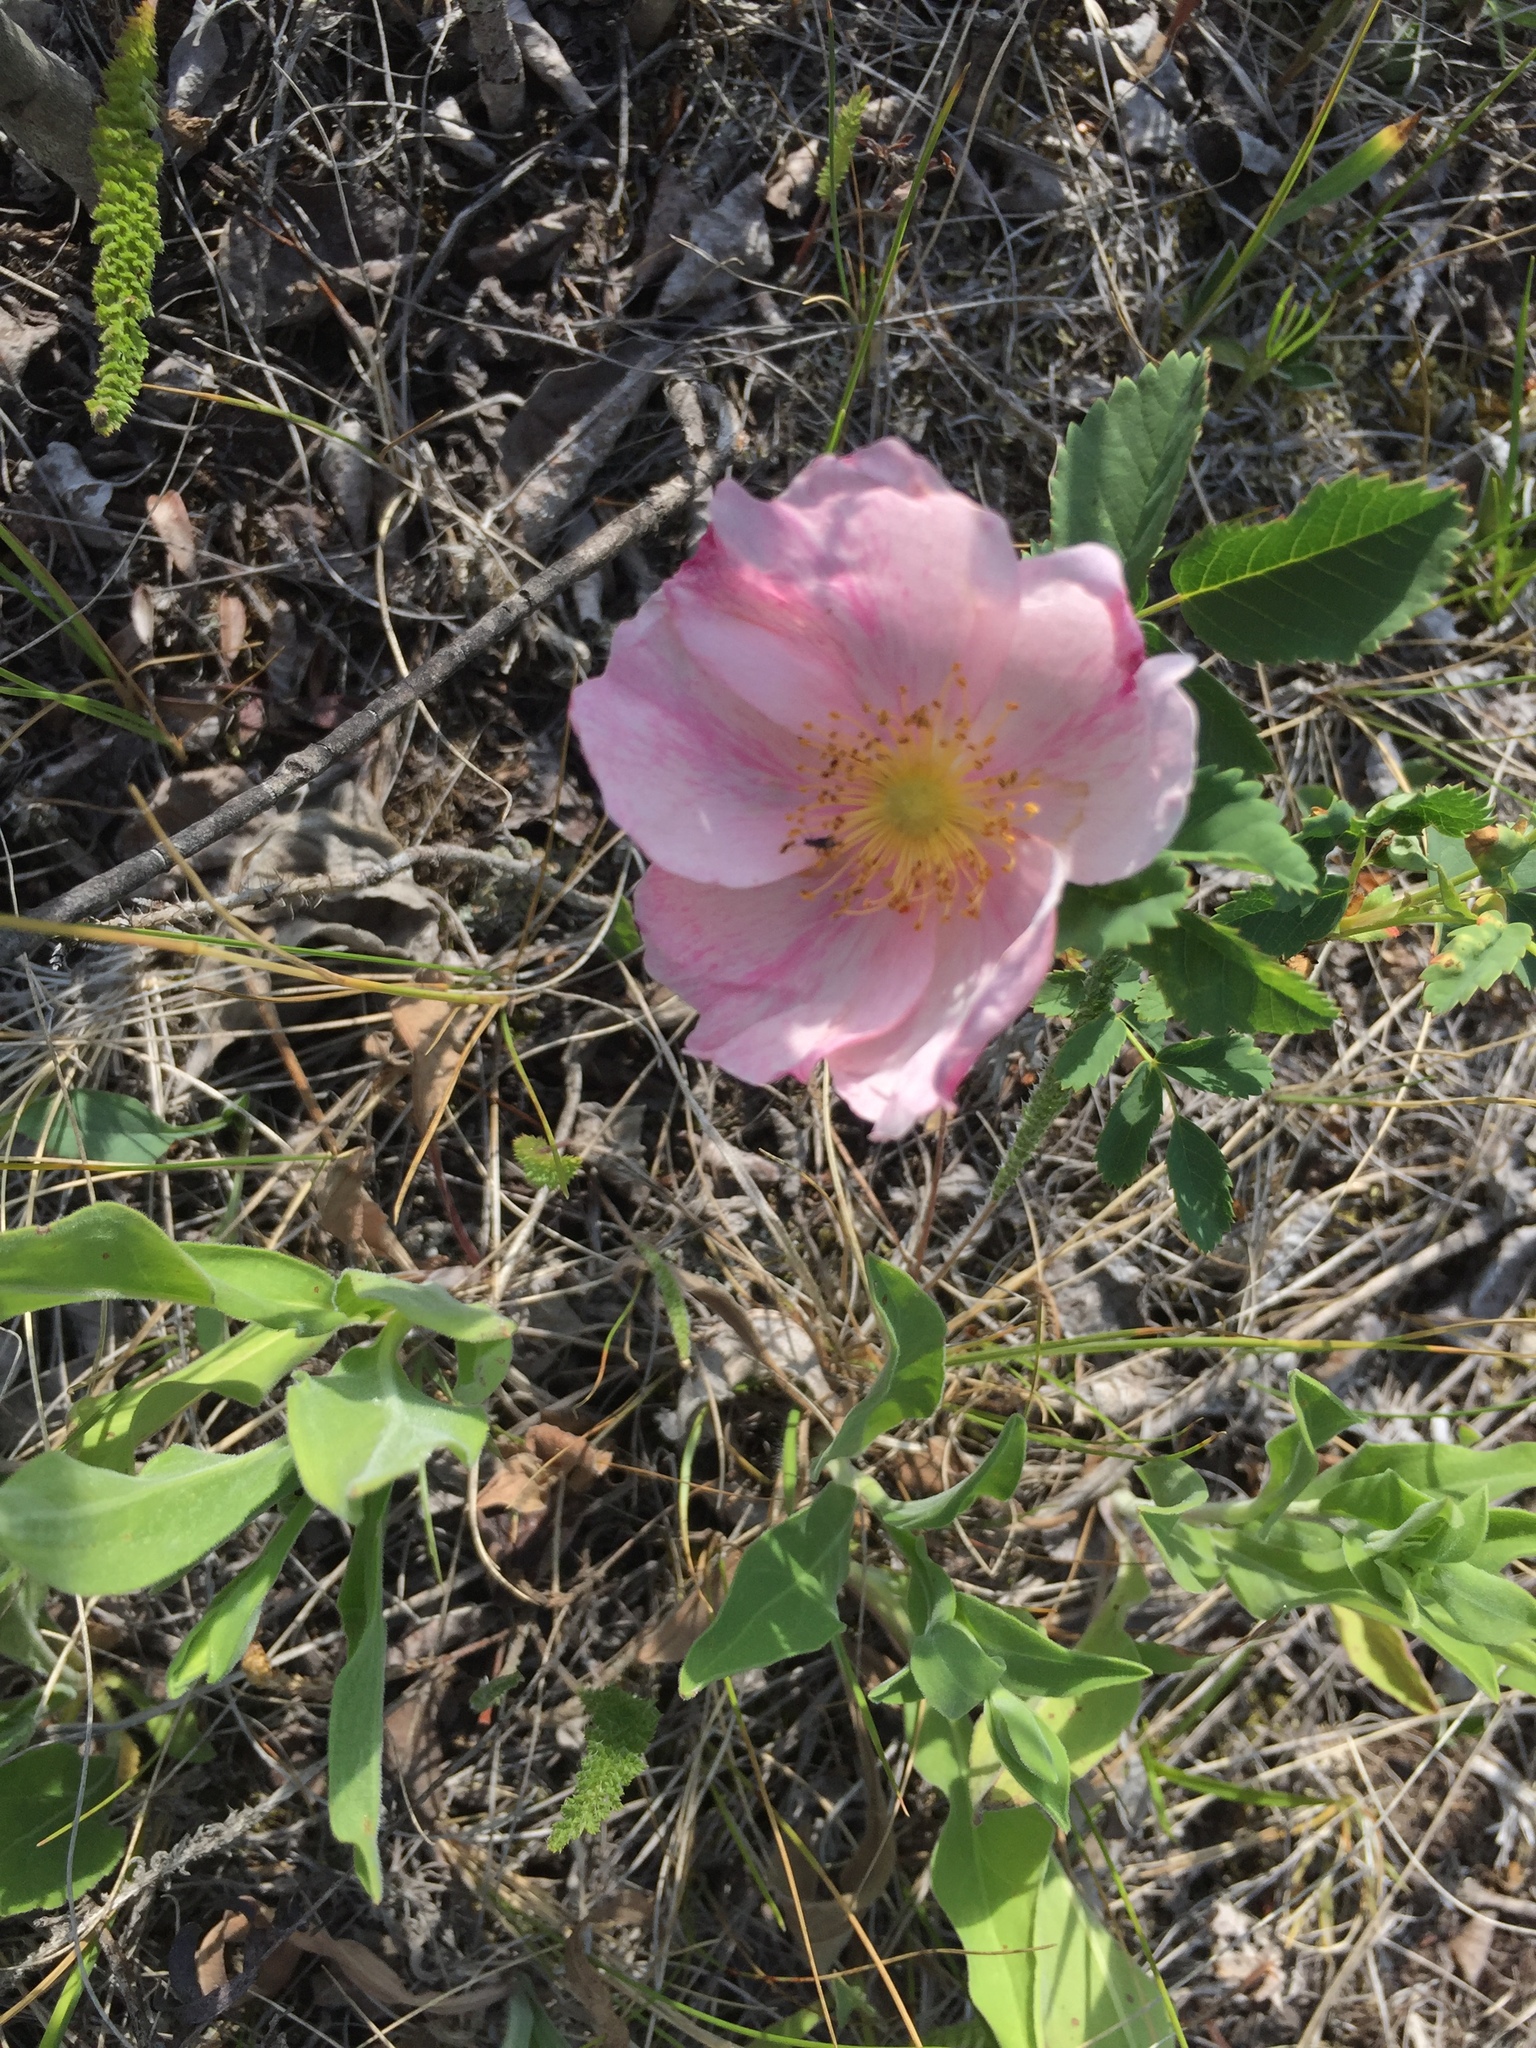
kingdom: Plantae
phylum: Tracheophyta
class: Magnoliopsida
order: Rosales
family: Rosaceae
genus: Rosa
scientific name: Rosa arkansana
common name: Prairie rose
